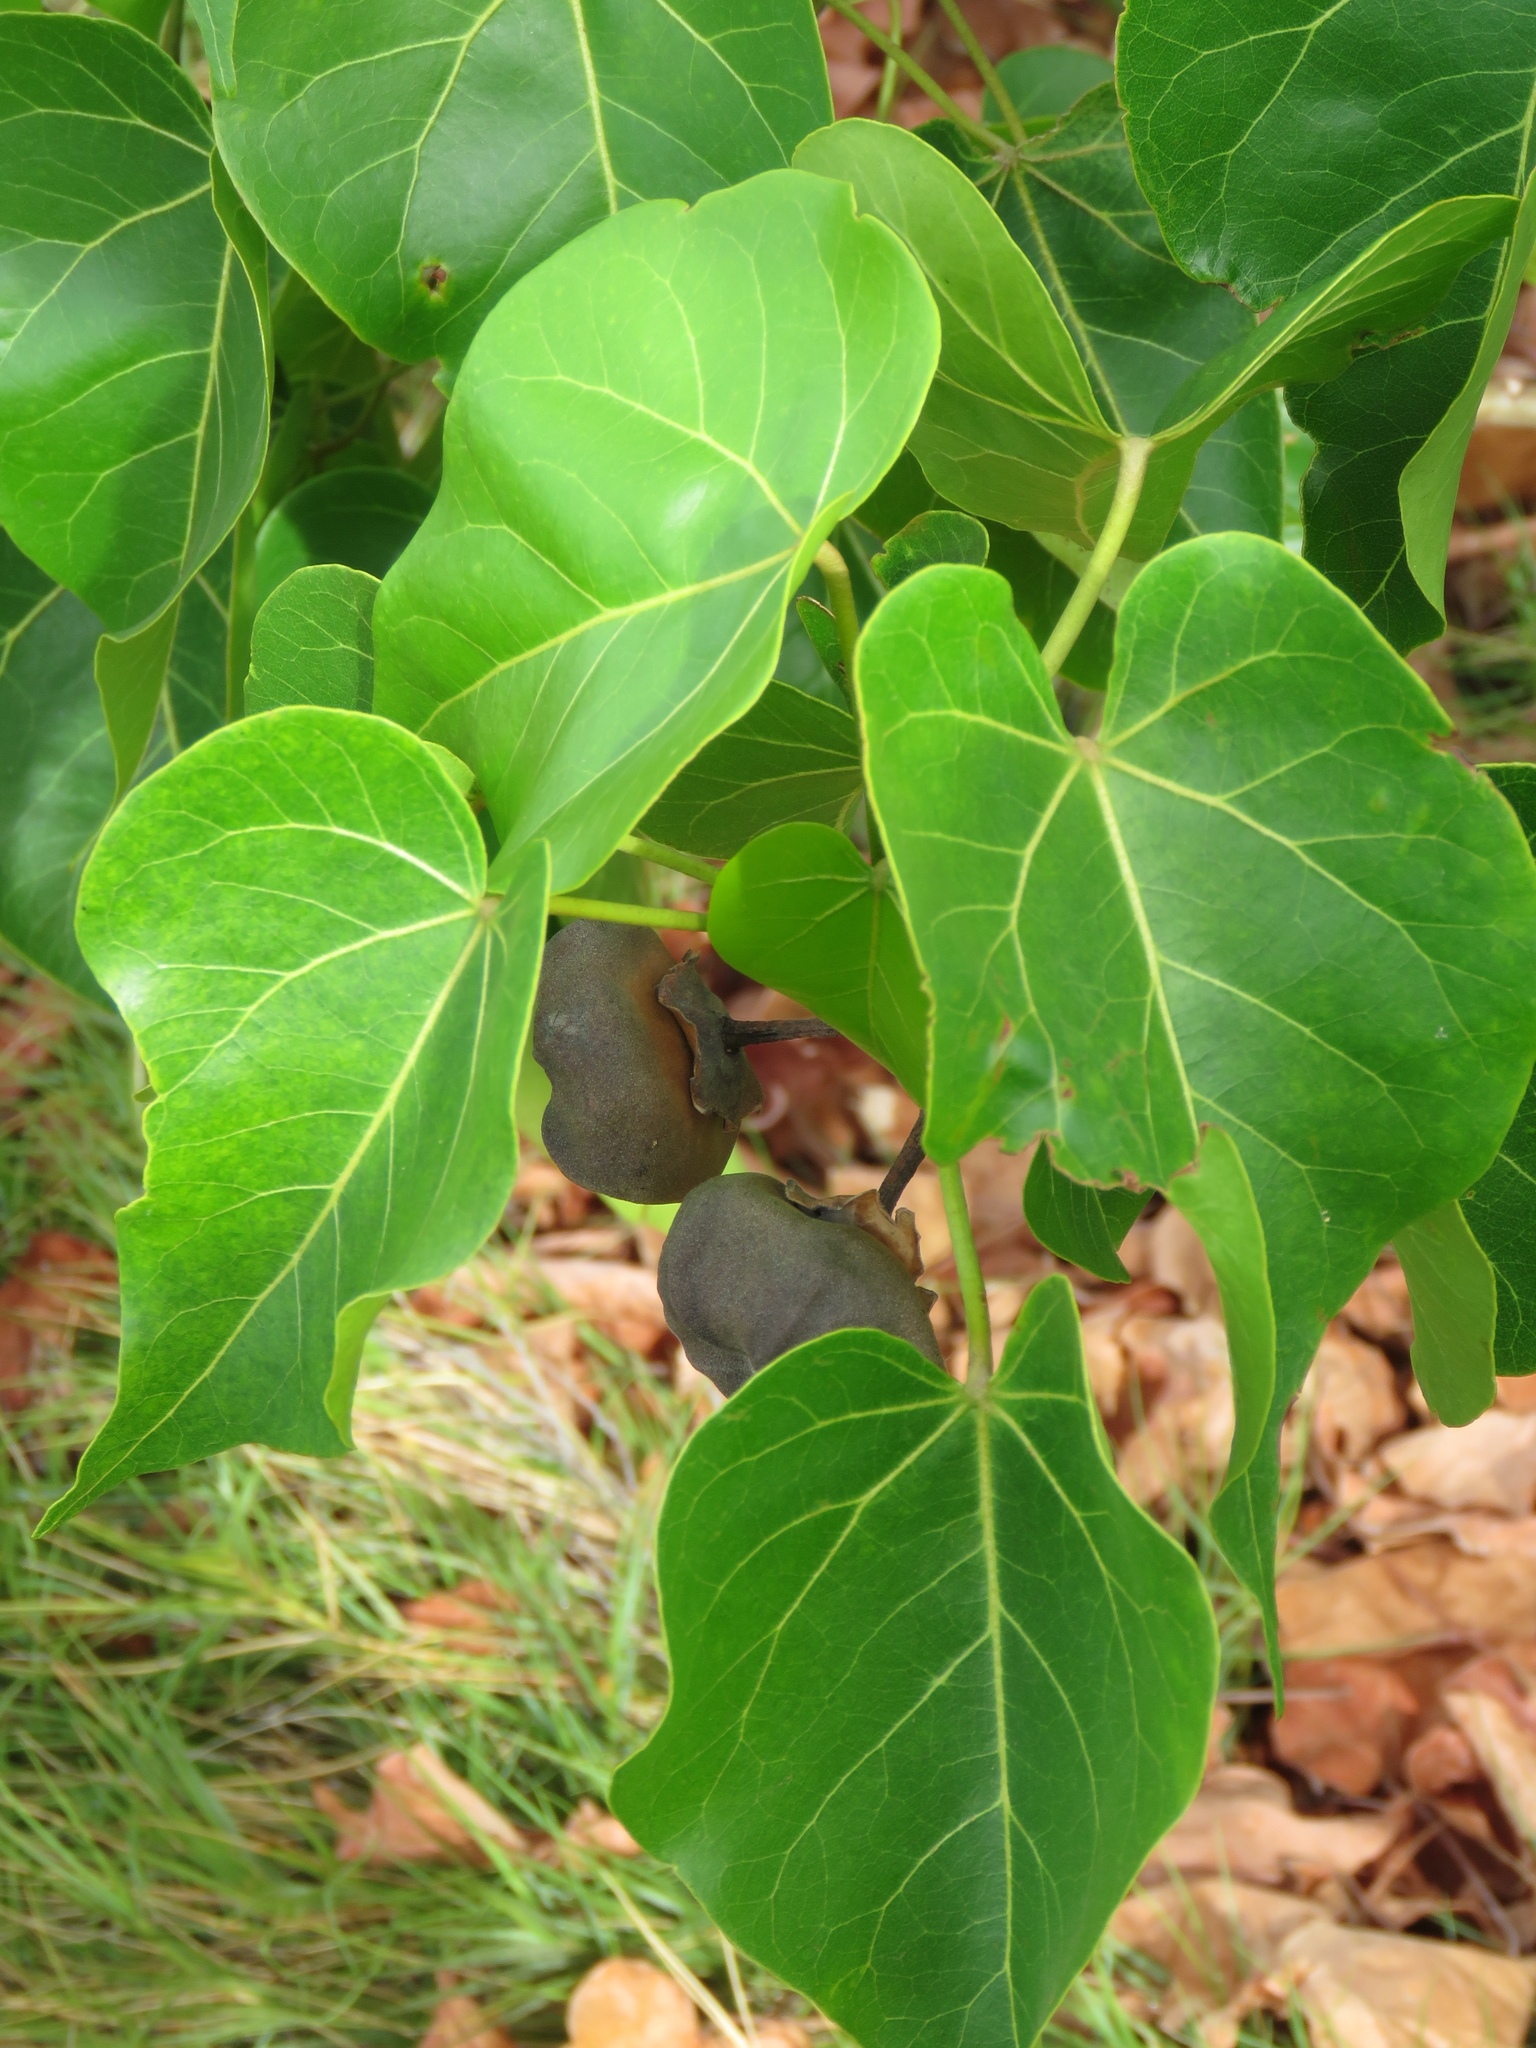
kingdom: Plantae
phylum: Tracheophyta
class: Magnoliopsida
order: Malvales
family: Malvaceae
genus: Thespesia
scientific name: Thespesia populnea
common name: Seaside mahoe
